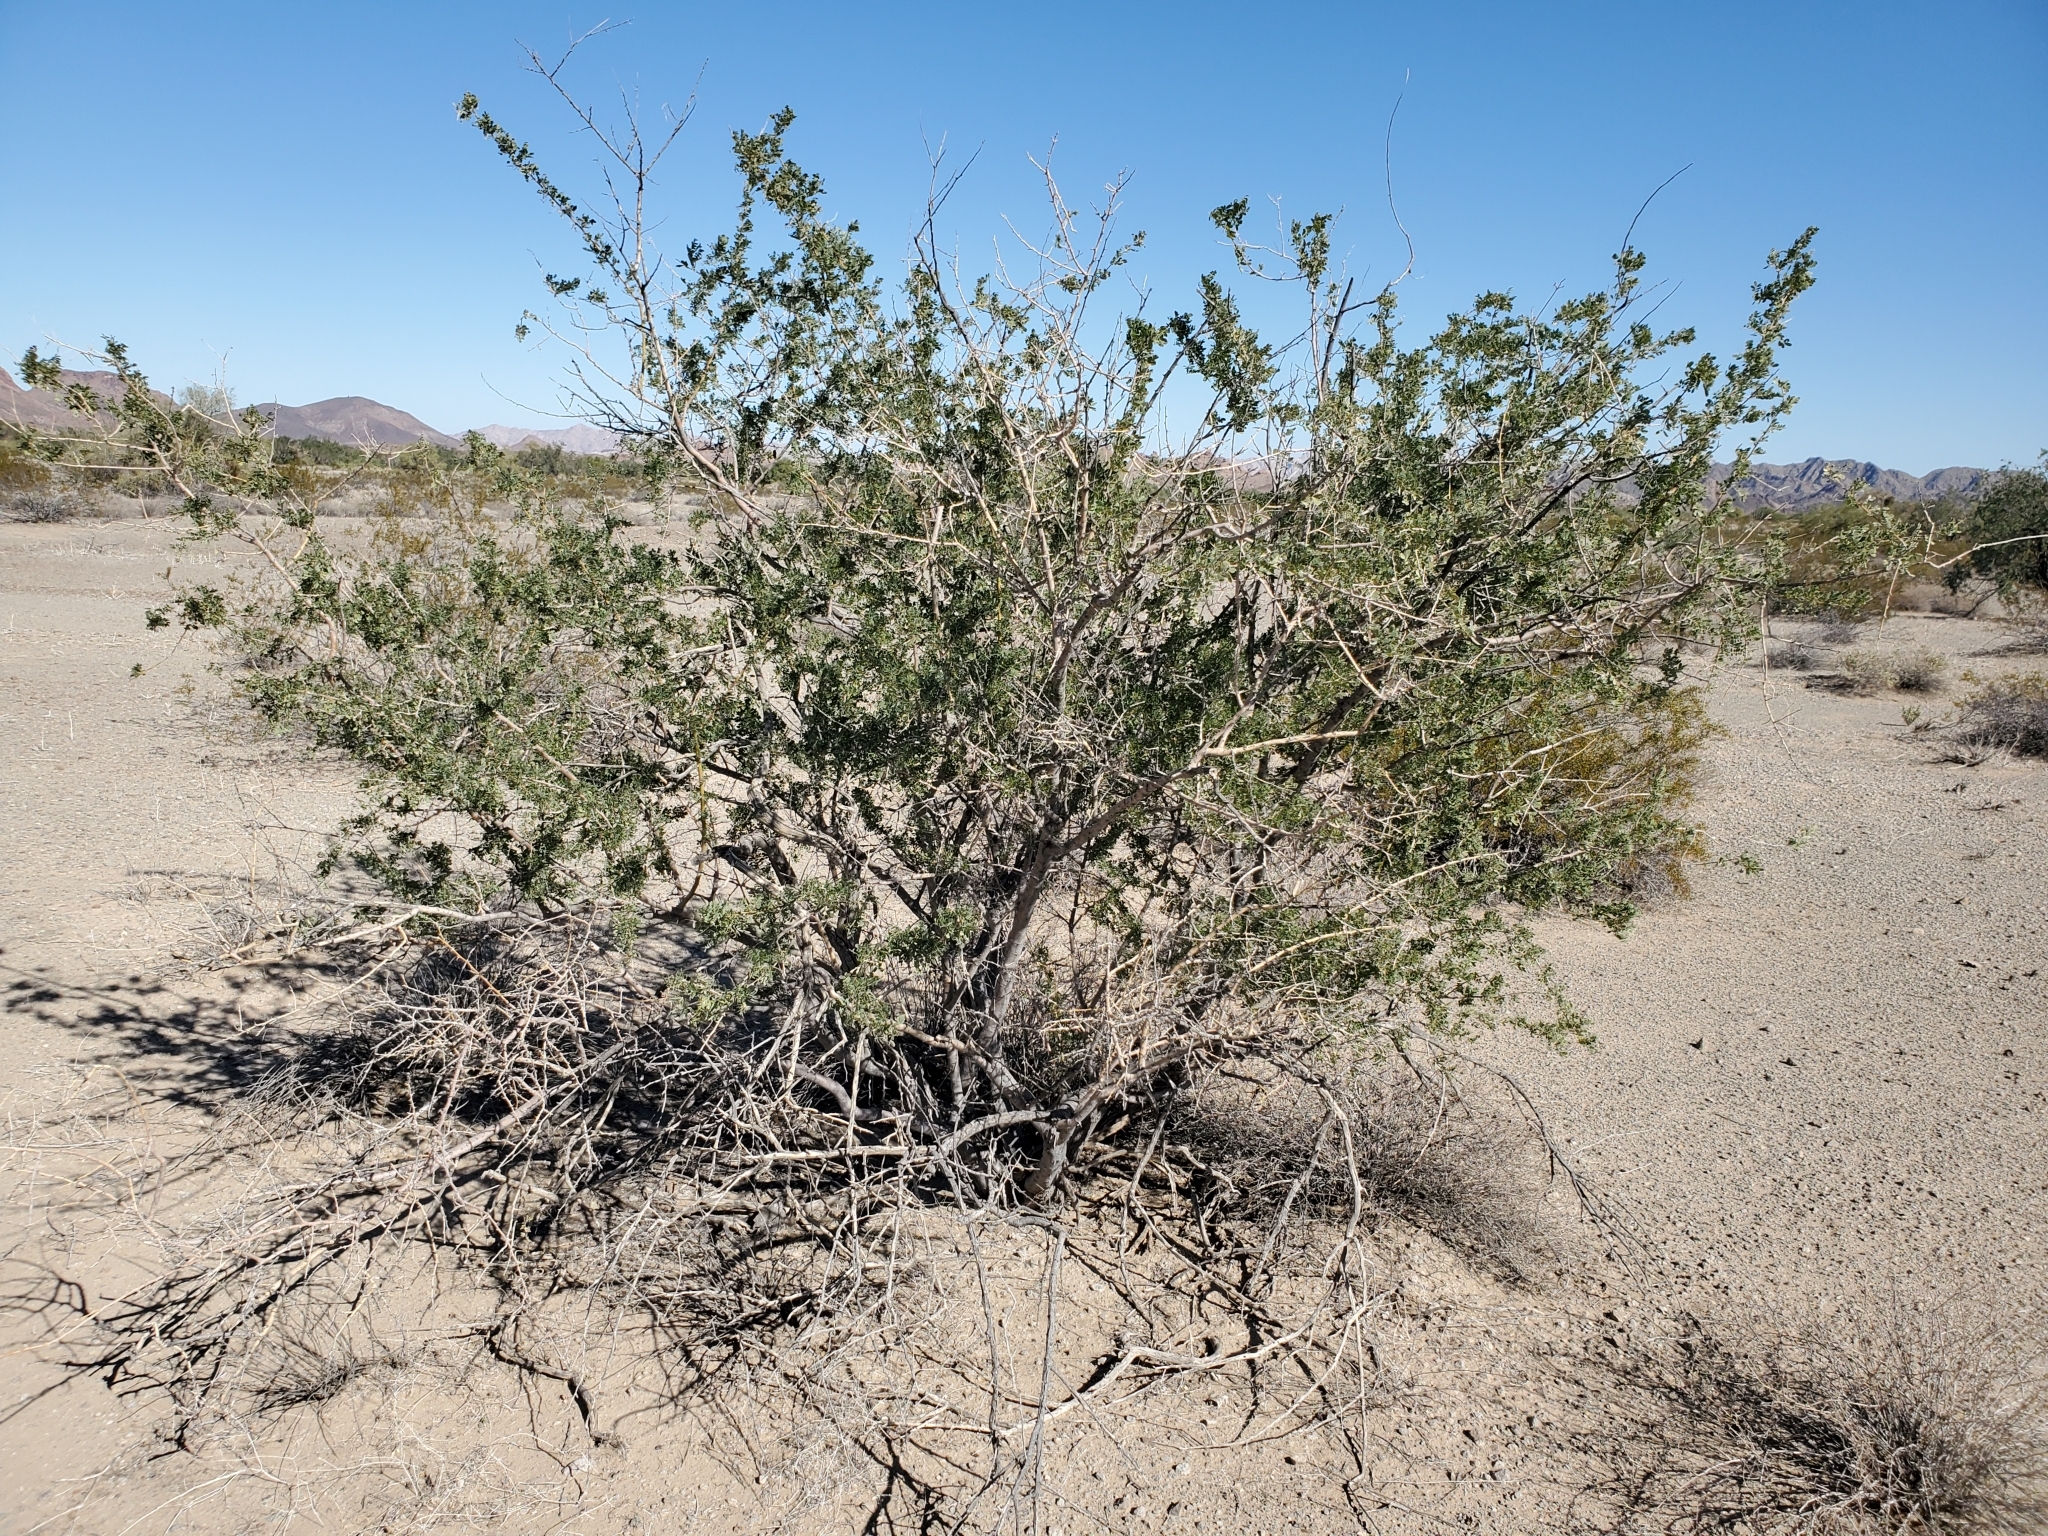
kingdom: Plantae
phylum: Tracheophyta
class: Magnoliopsida
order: Fabales
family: Fabaceae
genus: Olneya
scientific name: Olneya tesota
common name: Desert ironwood
